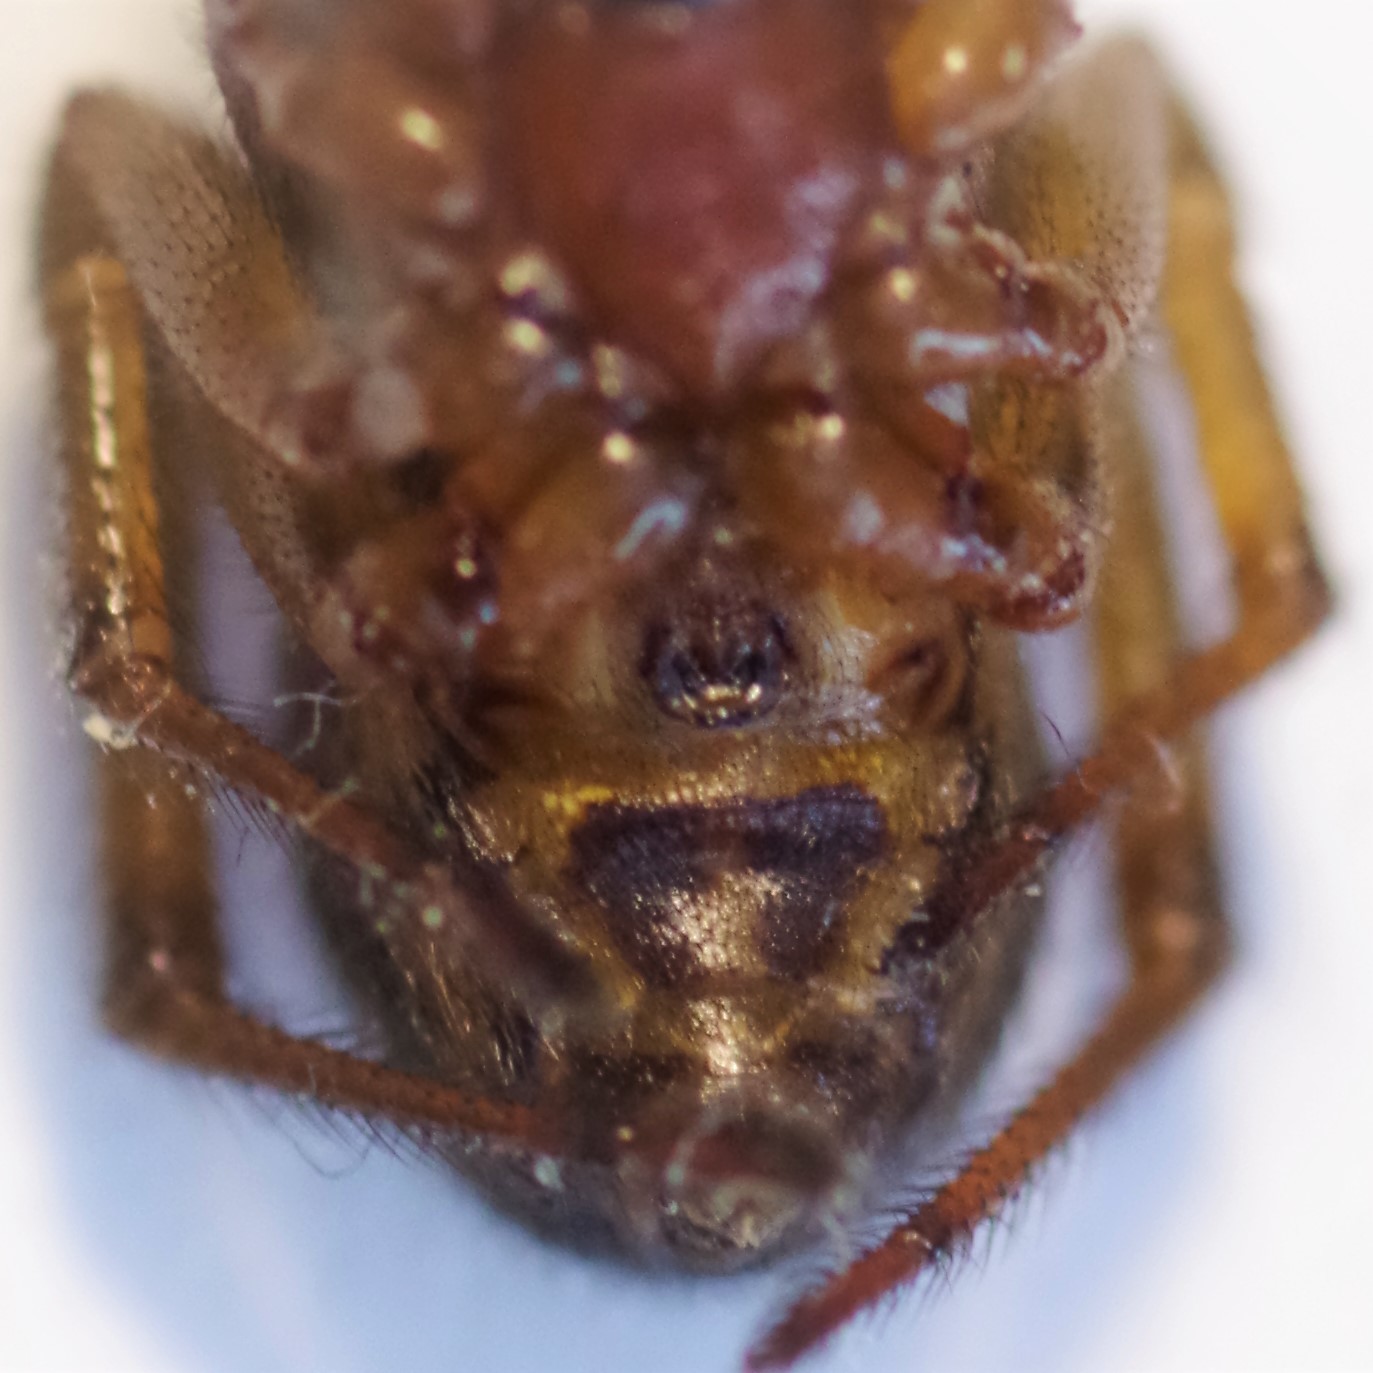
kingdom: Animalia
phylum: Arthropoda
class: Arachnida
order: Araneae
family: Theridiidae
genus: Steatoda
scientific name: Steatoda nobilis
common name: Cobweb weaver
